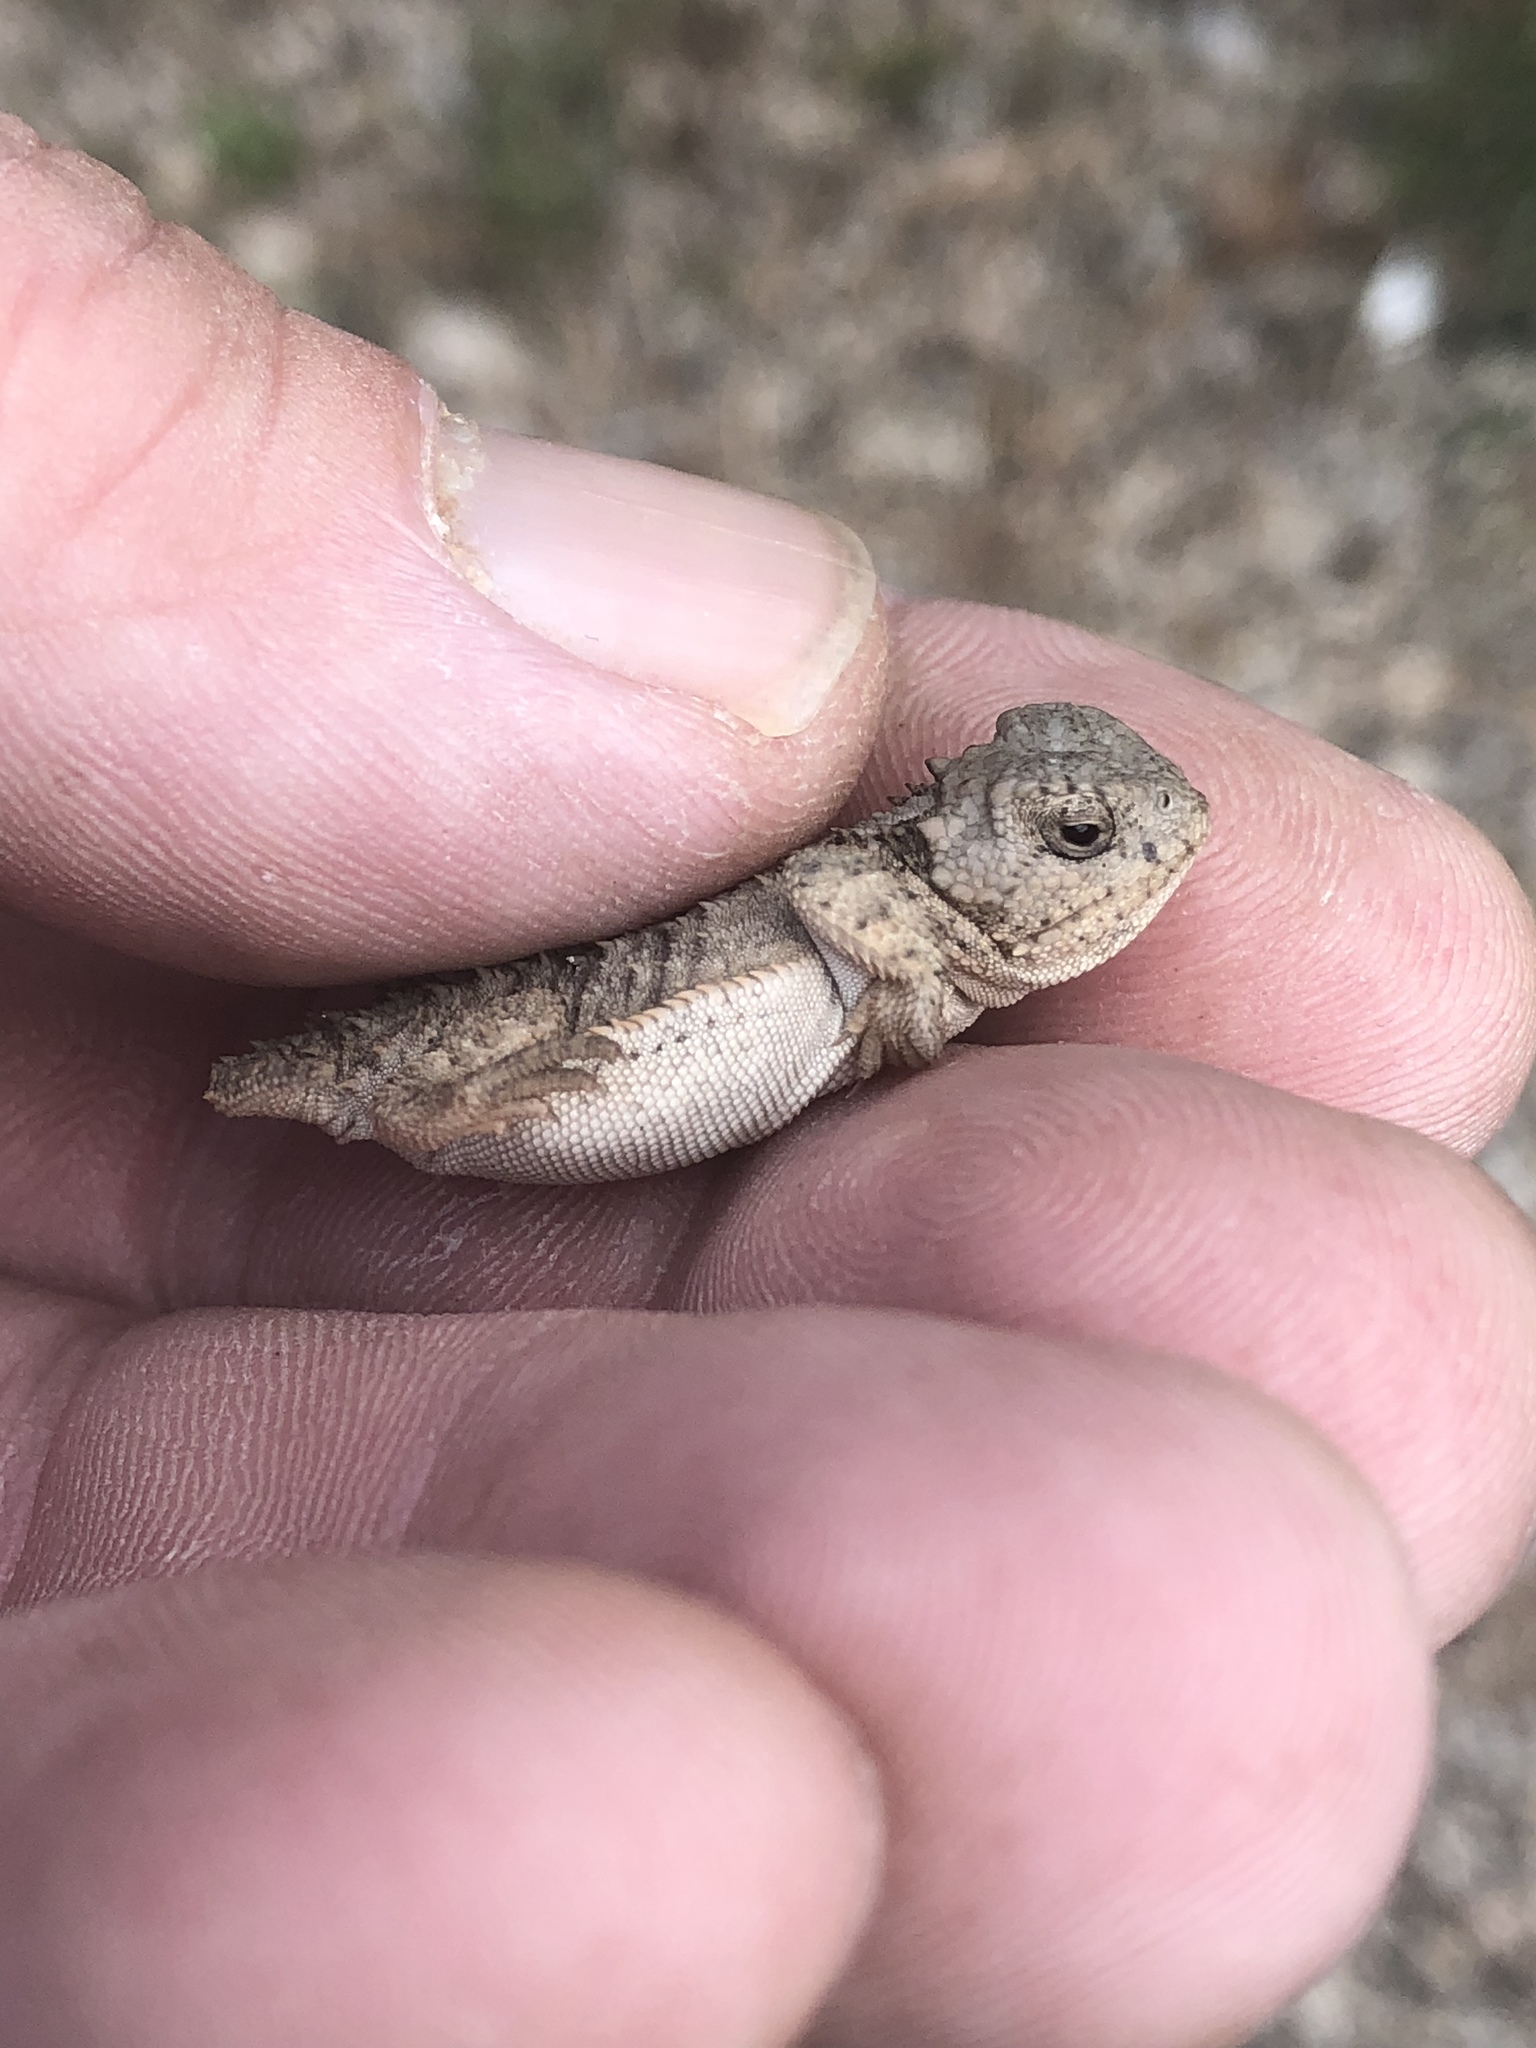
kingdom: Animalia
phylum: Chordata
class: Squamata
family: Phrynosomatidae
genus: Phrynosoma
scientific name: Phrynosoma hernandesi
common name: Greater short-horned lizard
